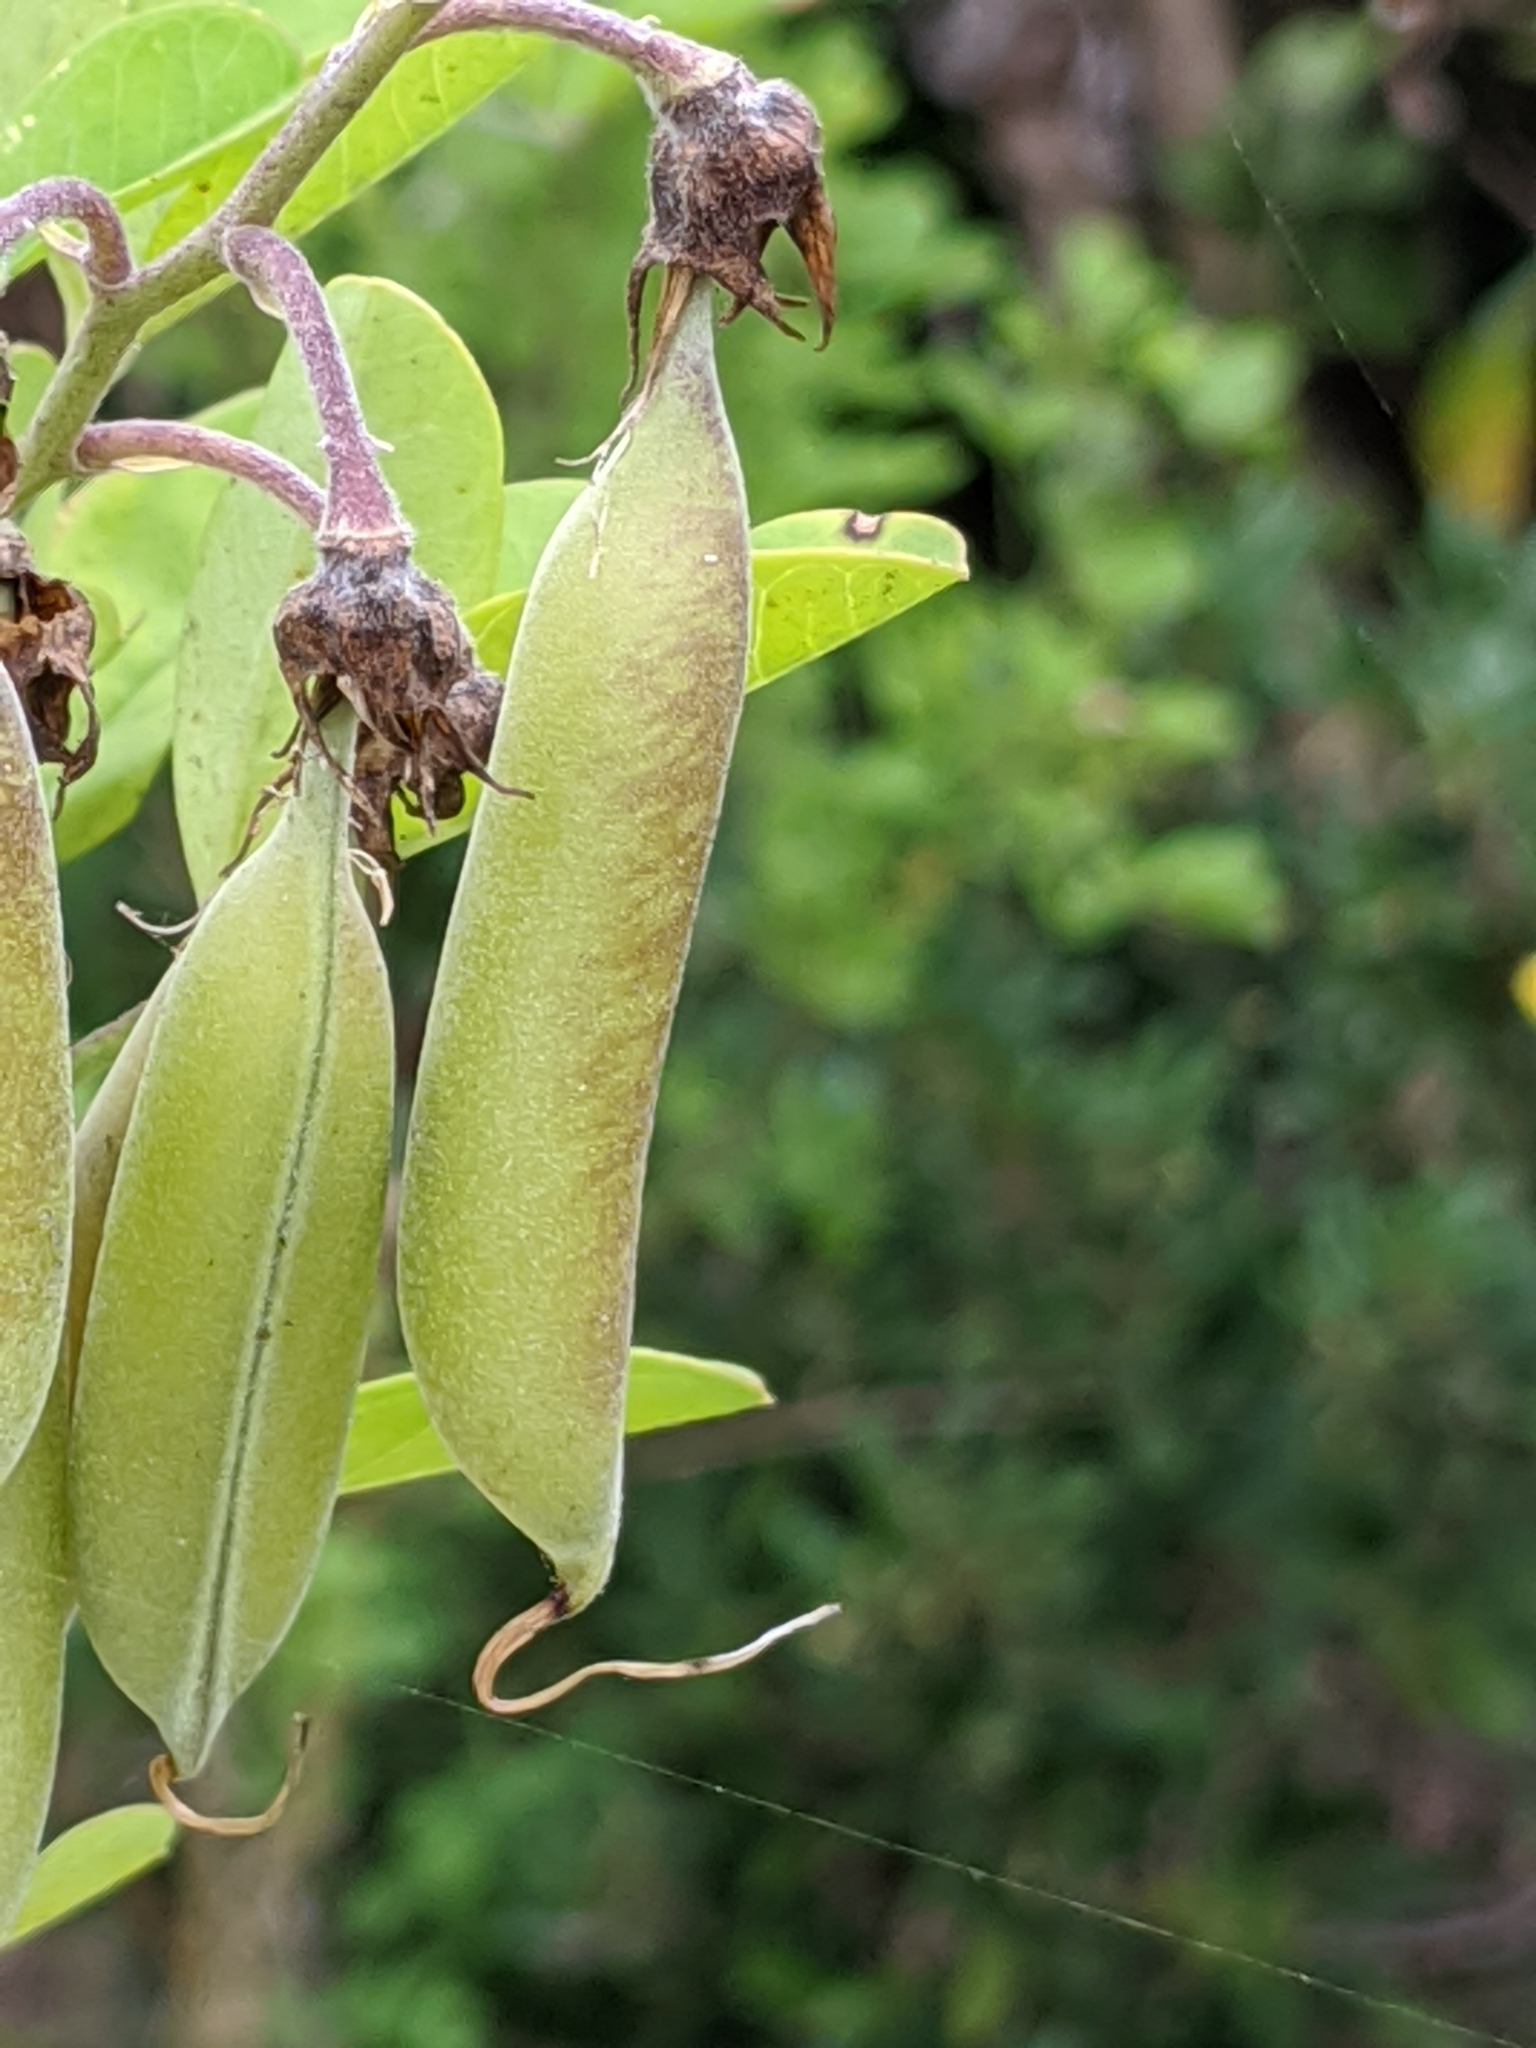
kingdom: Plantae
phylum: Tracheophyta
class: Magnoliopsida
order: Fabales
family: Fabaceae
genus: Crotalaria
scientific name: Crotalaria capensis
